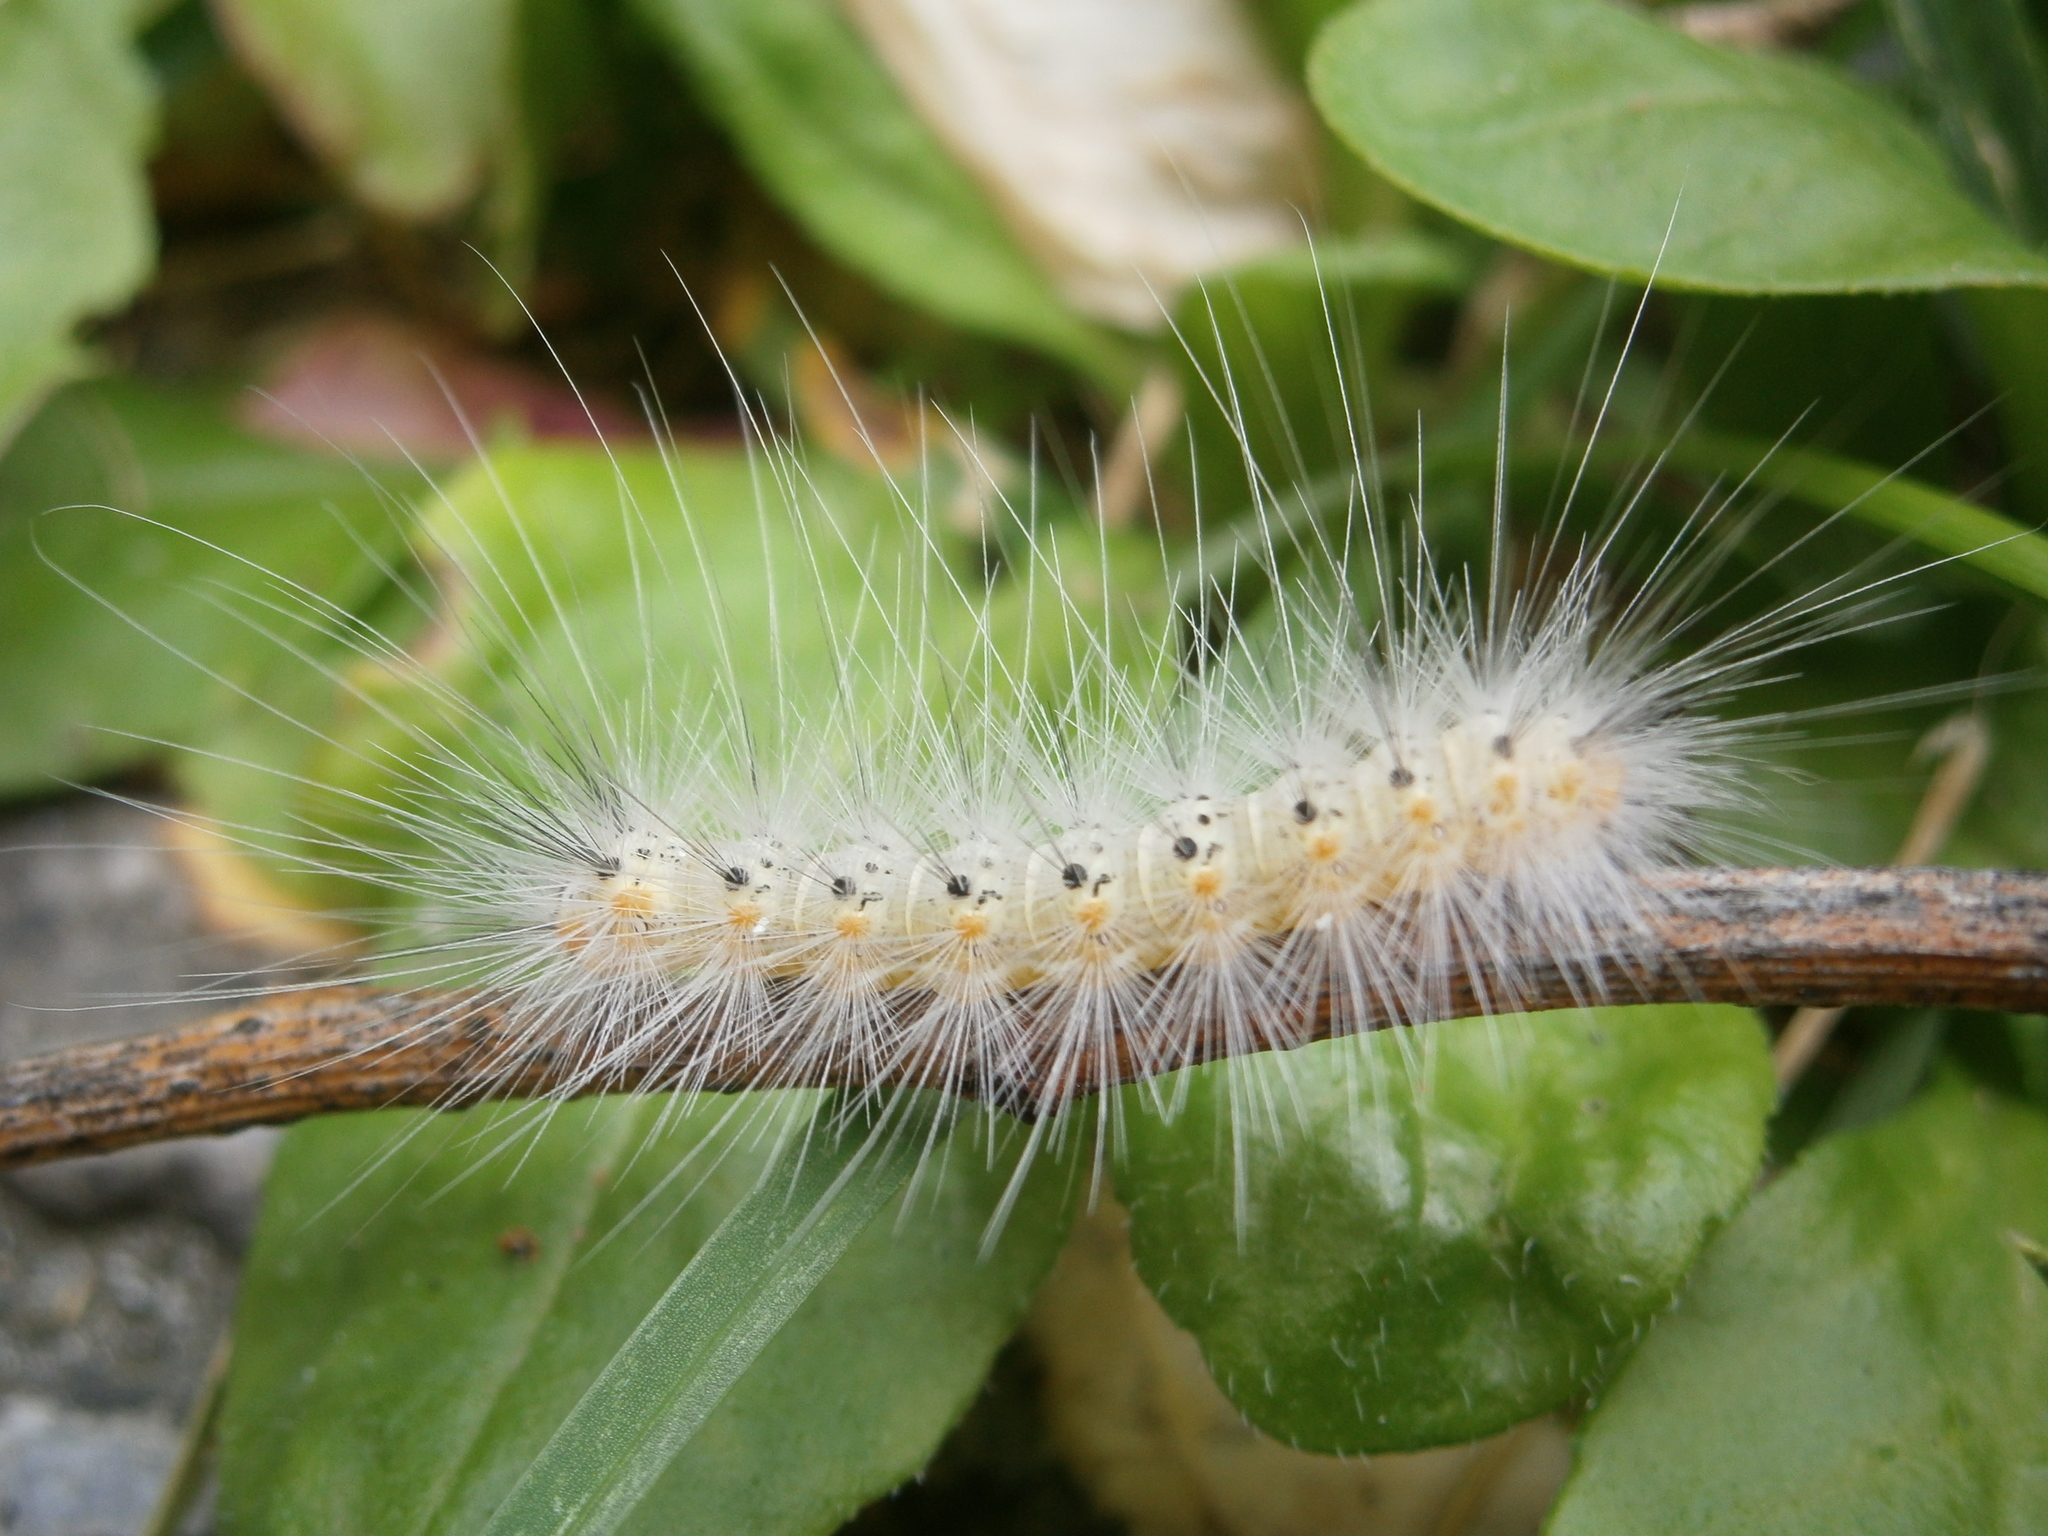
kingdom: Animalia
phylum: Arthropoda
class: Insecta
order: Lepidoptera
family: Erebidae
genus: Hyphantria
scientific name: Hyphantria cunea
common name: American white moth
